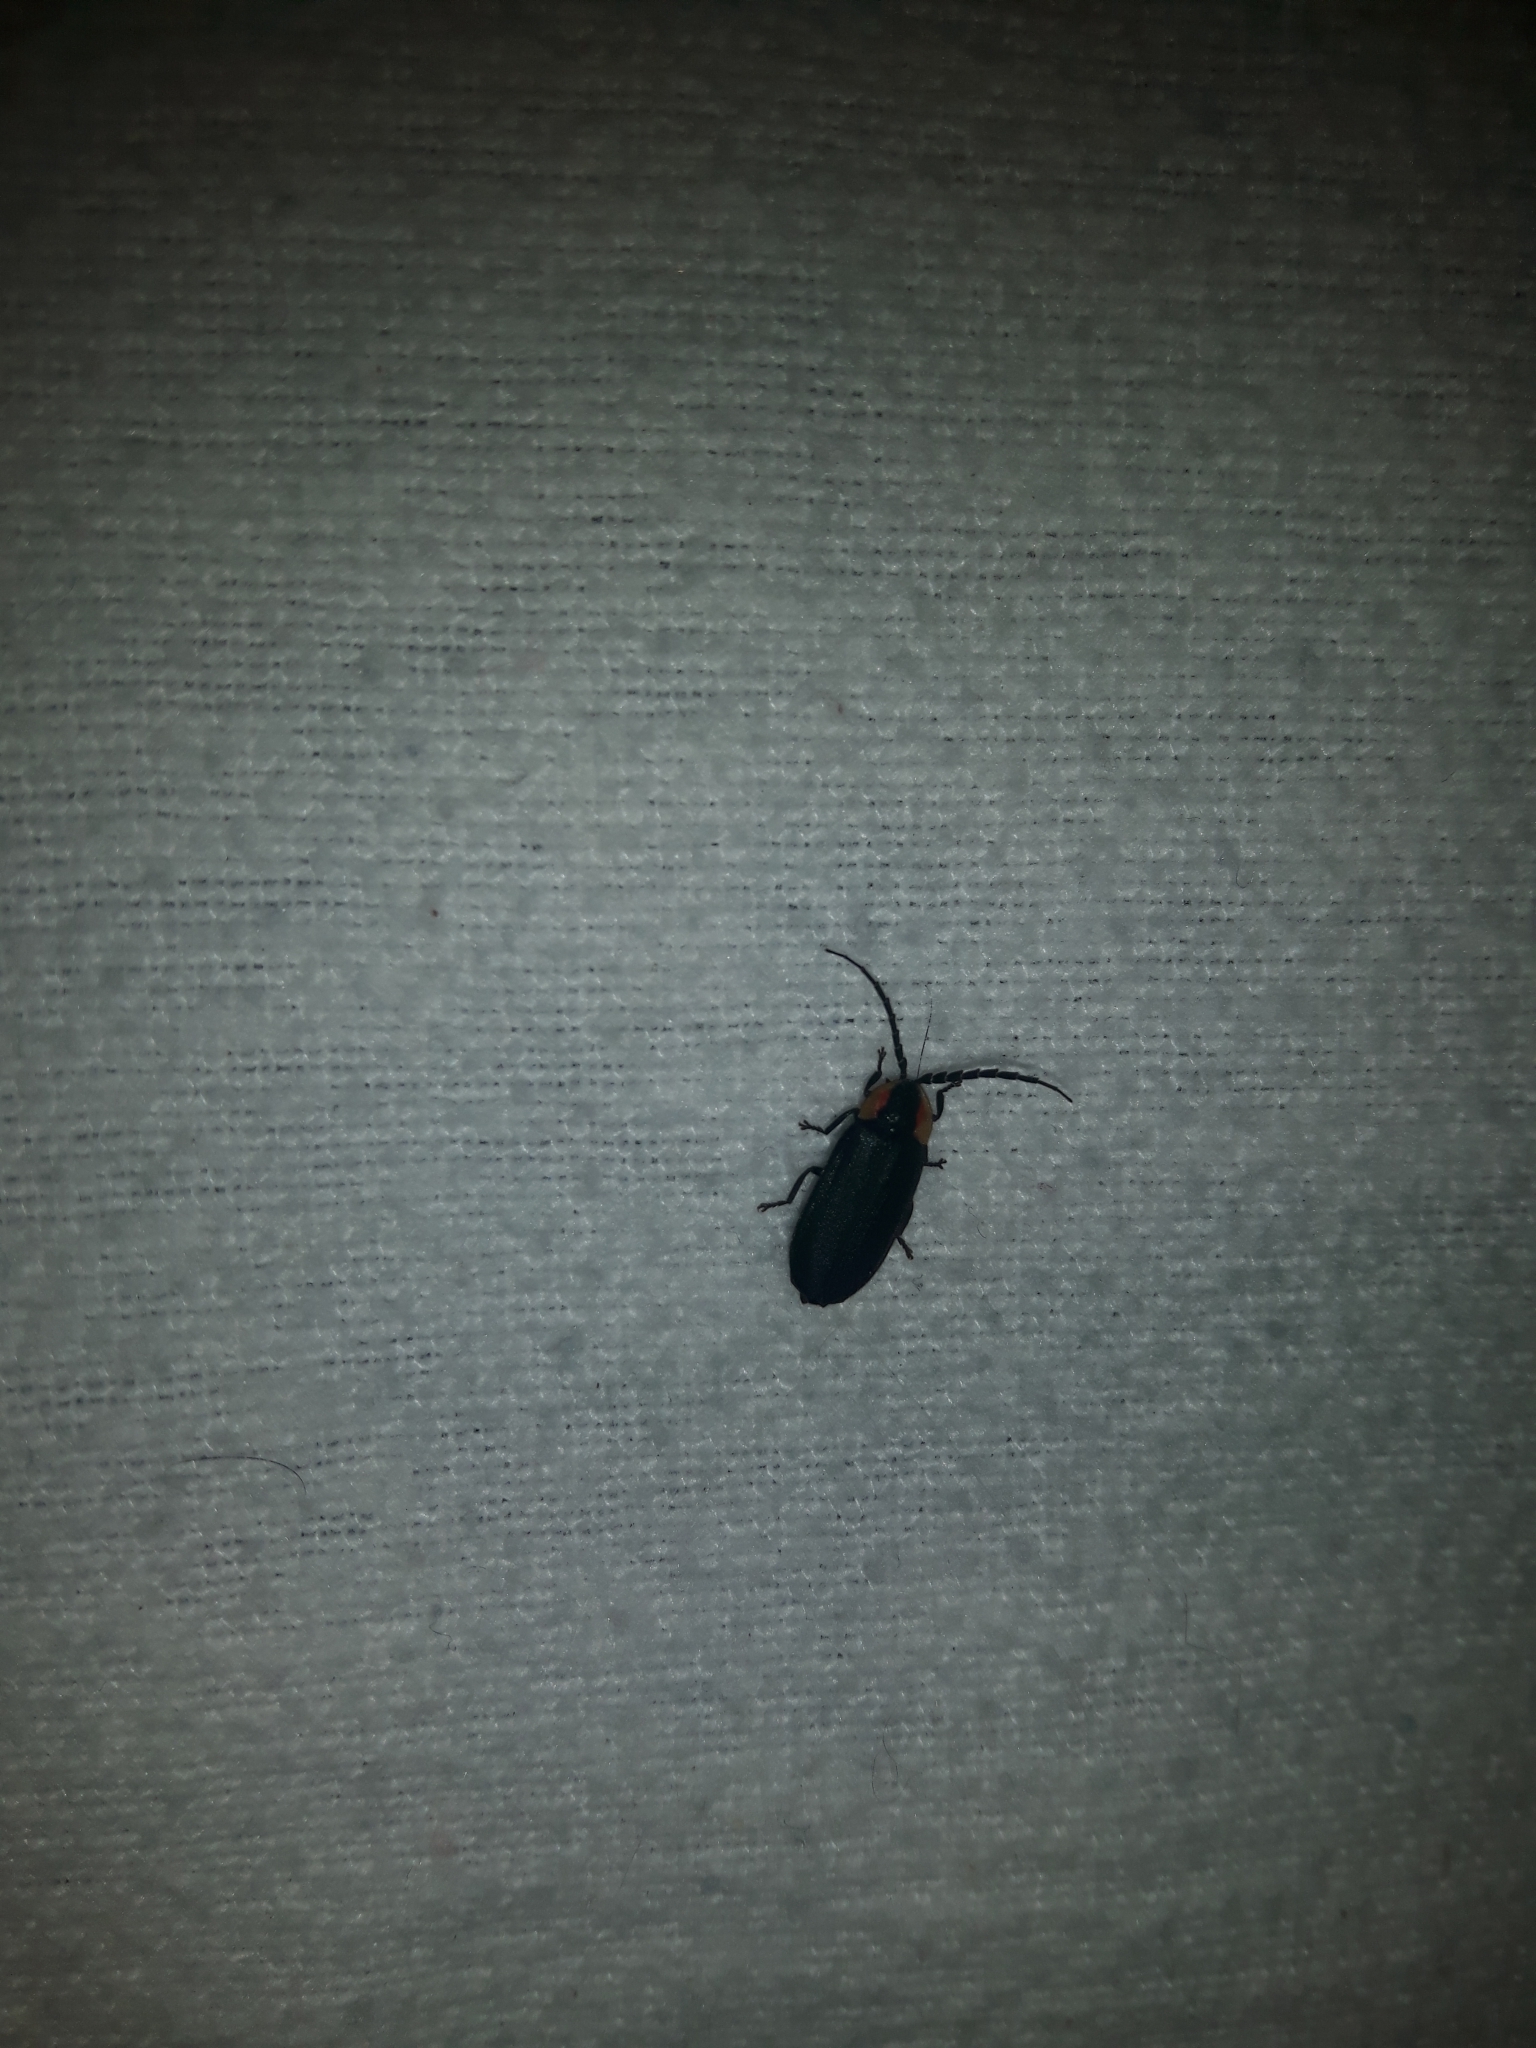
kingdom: Animalia
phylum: Arthropoda
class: Insecta
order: Coleoptera
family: Lampyridae
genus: Lucidota
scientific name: Lucidota atra
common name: Black firefly
